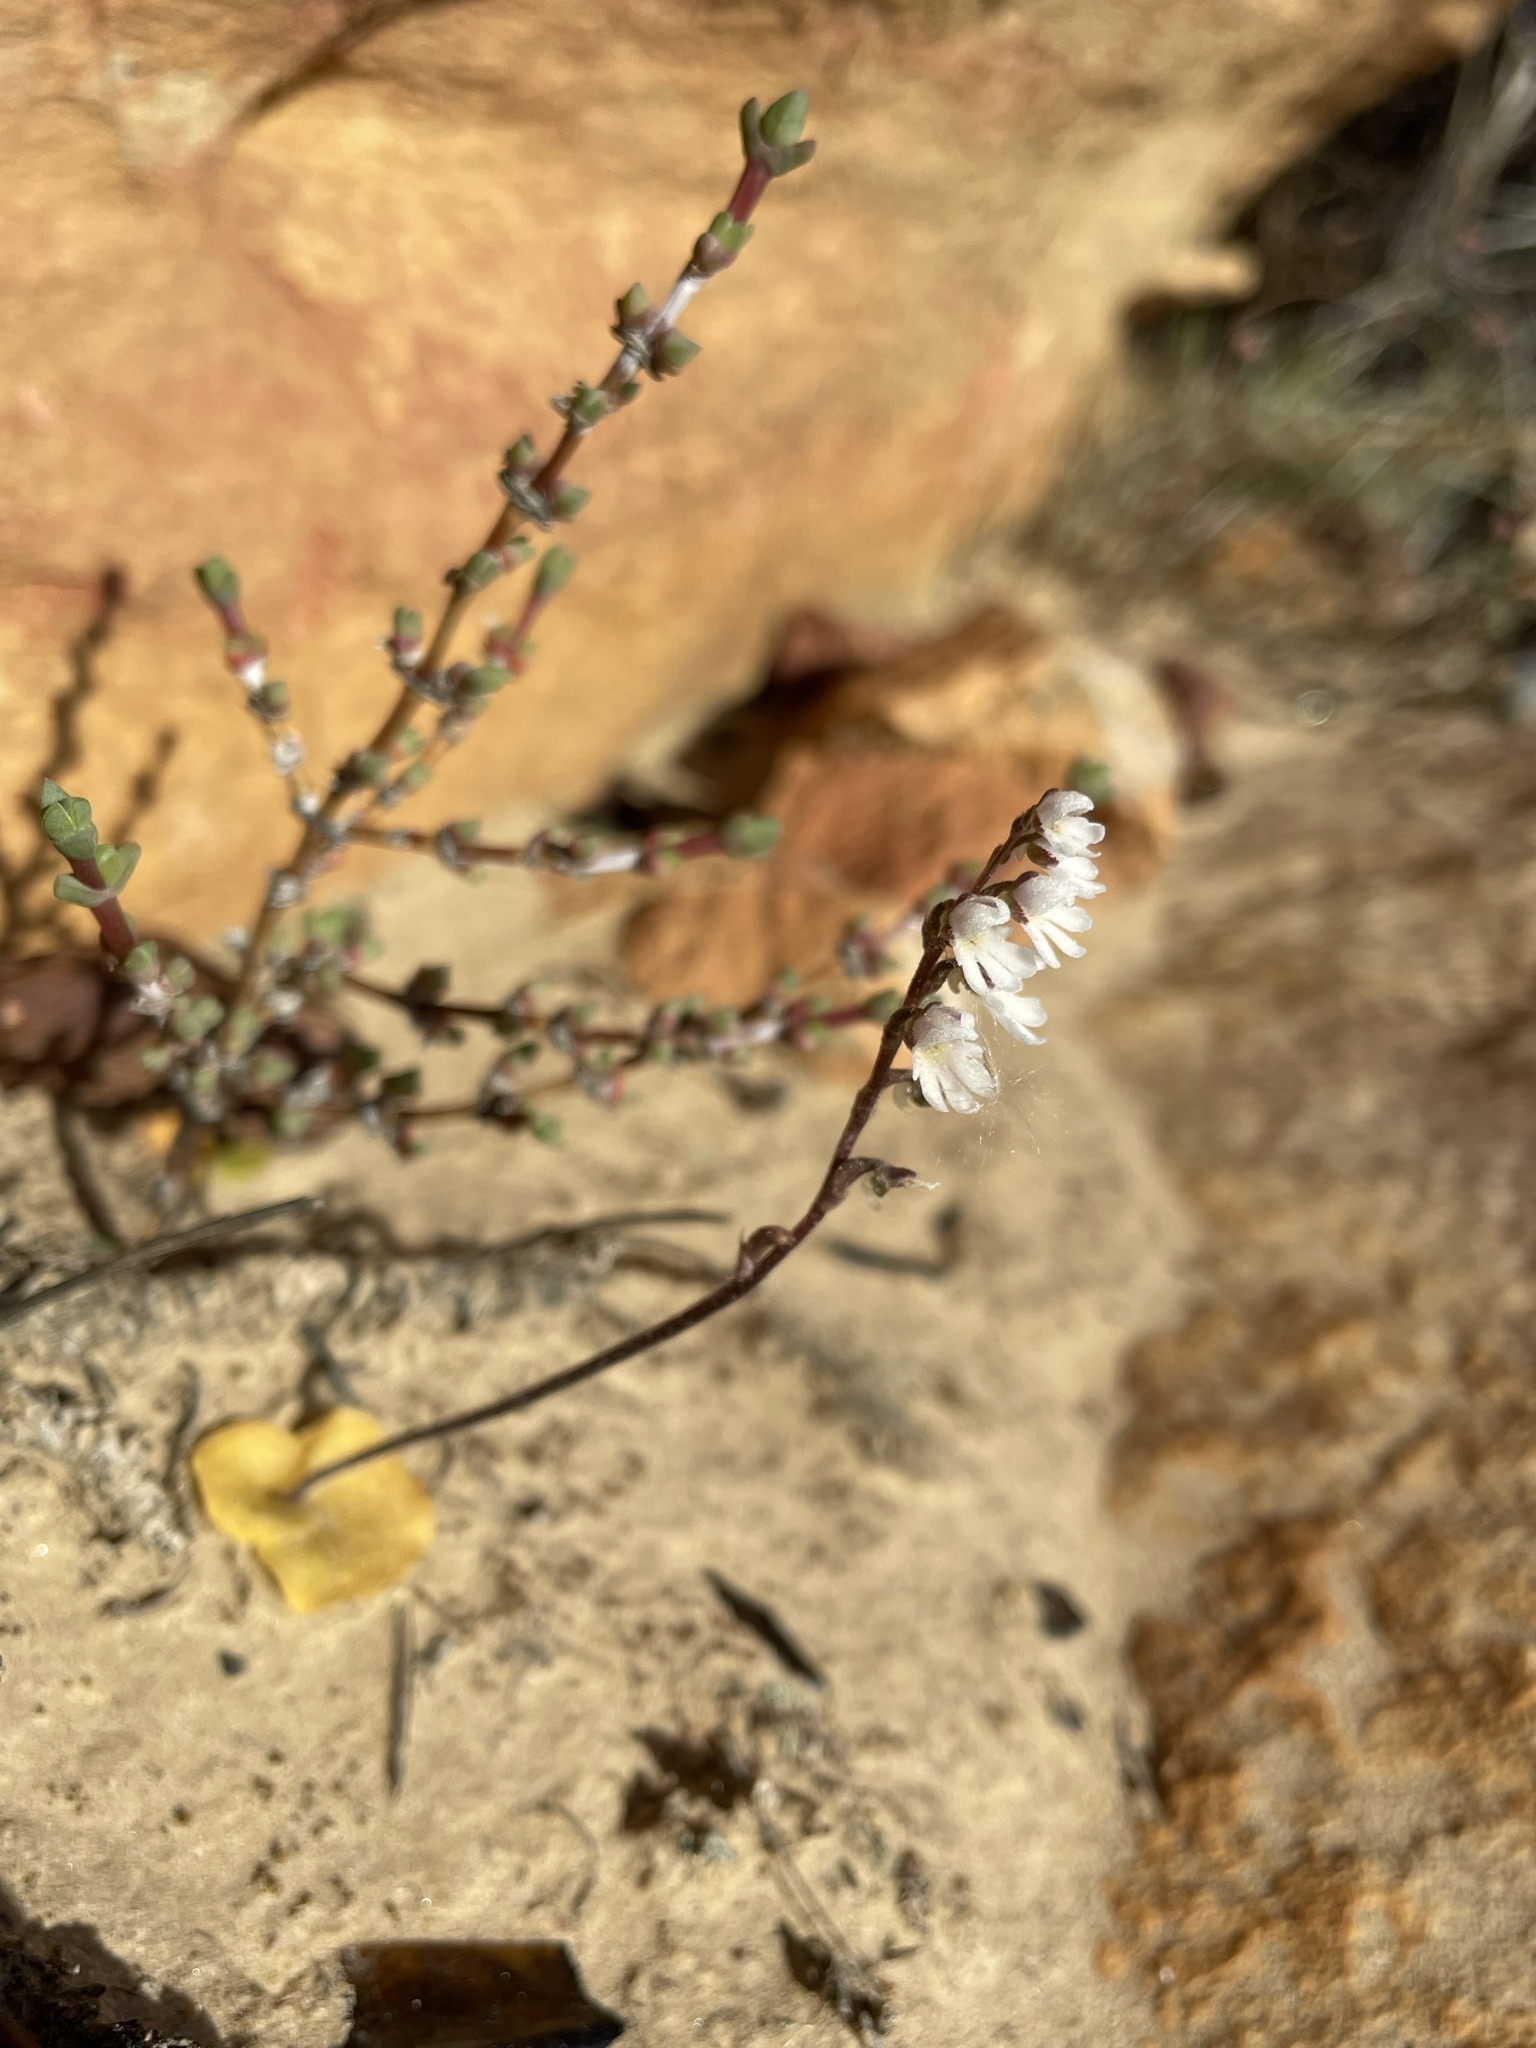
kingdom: Plantae
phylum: Tracheophyta
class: Liliopsida
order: Asparagales
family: Orchidaceae
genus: Holothrix
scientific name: Holothrix aspera
